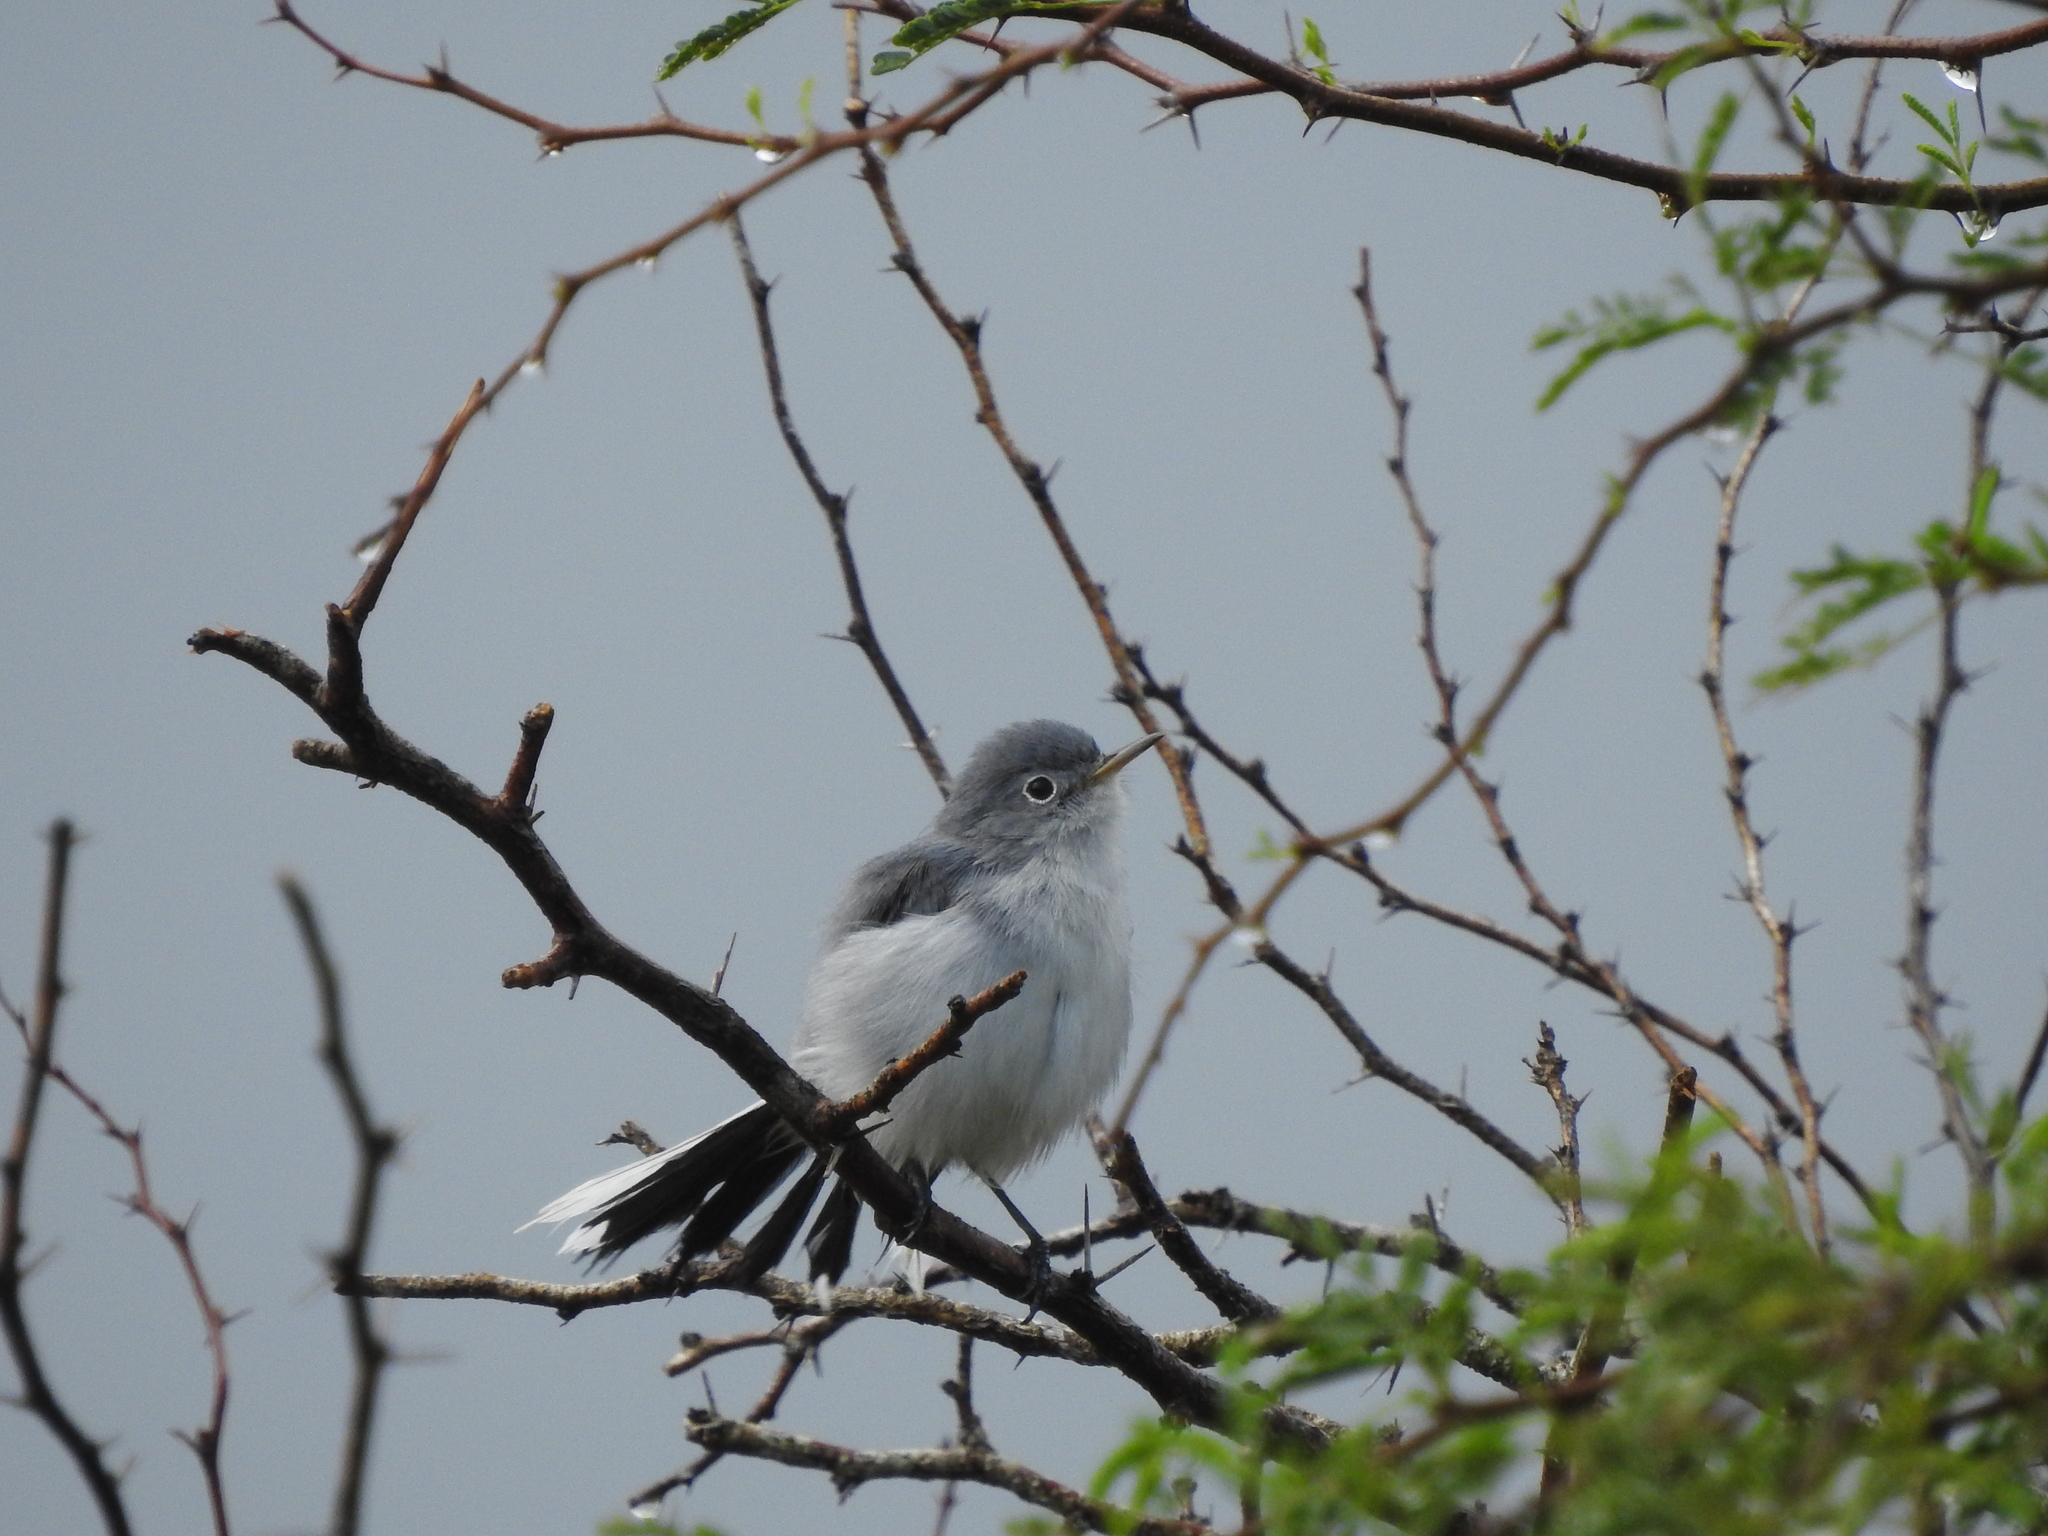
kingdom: Animalia
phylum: Chordata
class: Aves
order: Passeriformes
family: Polioptilidae
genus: Polioptila
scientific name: Polioptila caerulea
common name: Blue-gray gnatcatcher
